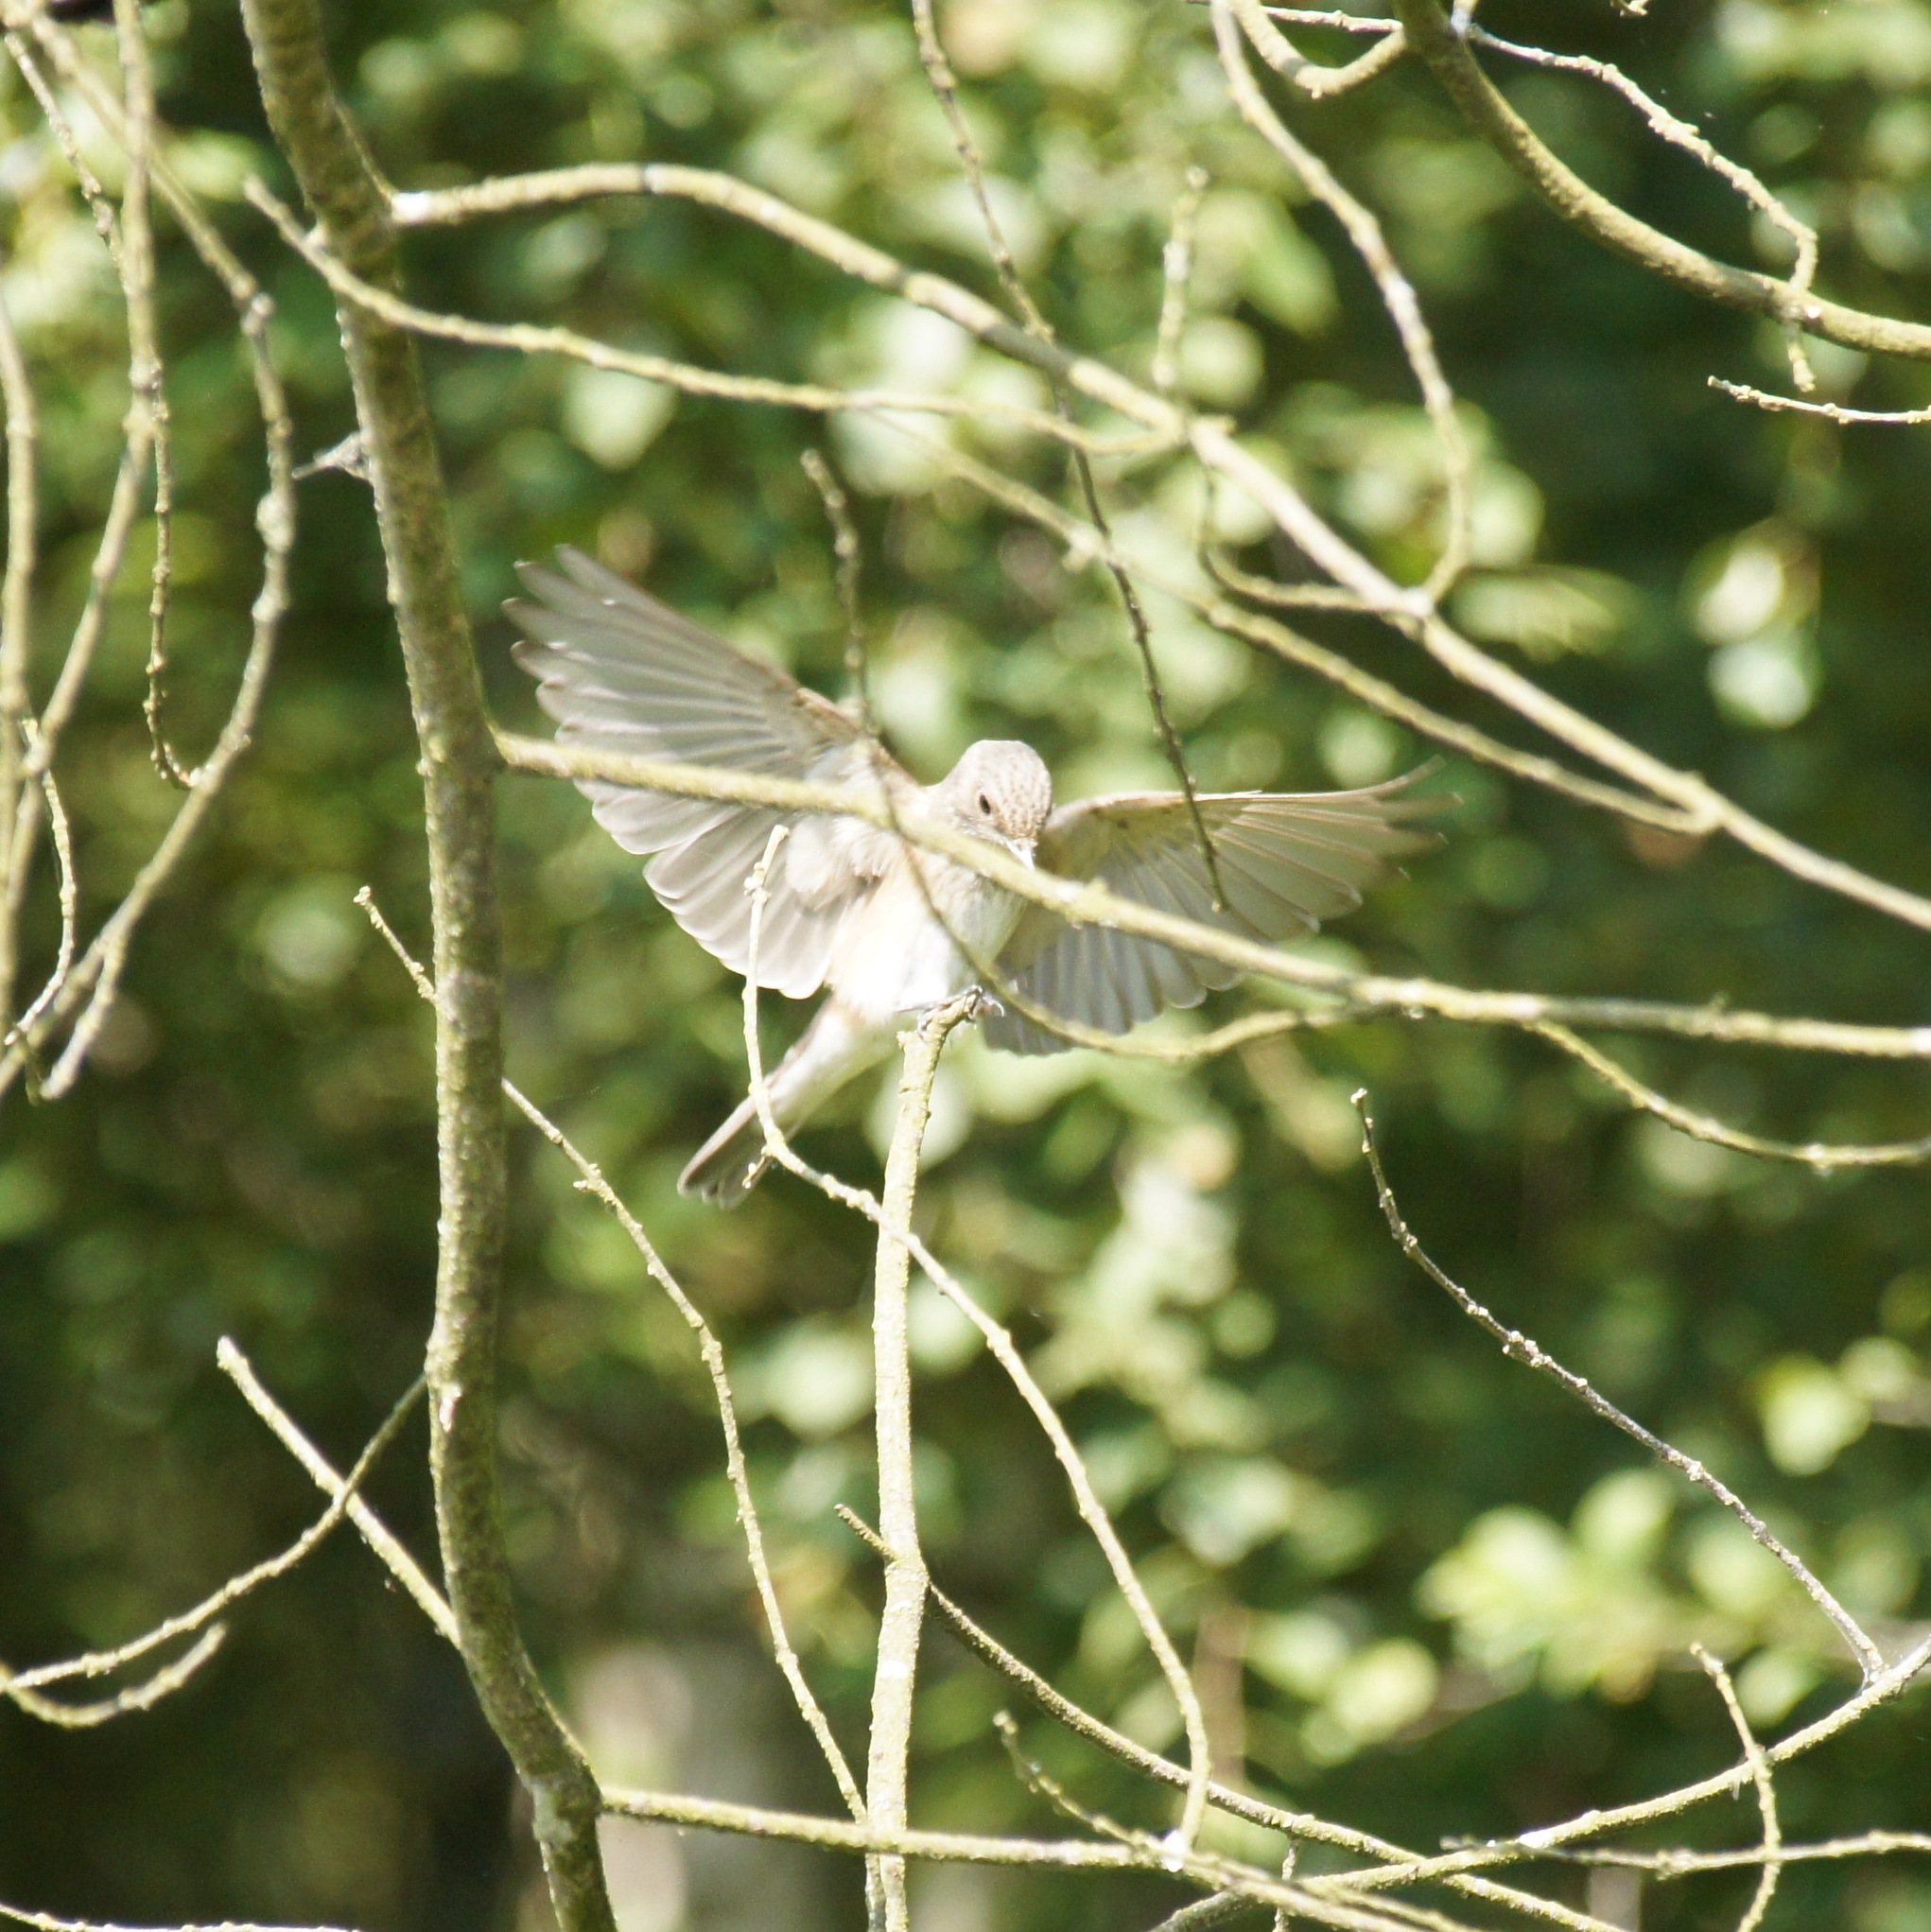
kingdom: Animalia
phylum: Chordata
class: Aves
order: Passeriformes
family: Muscicapidae
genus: Muscicapa
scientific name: Muscicapa striata
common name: Spotted flycatcher
